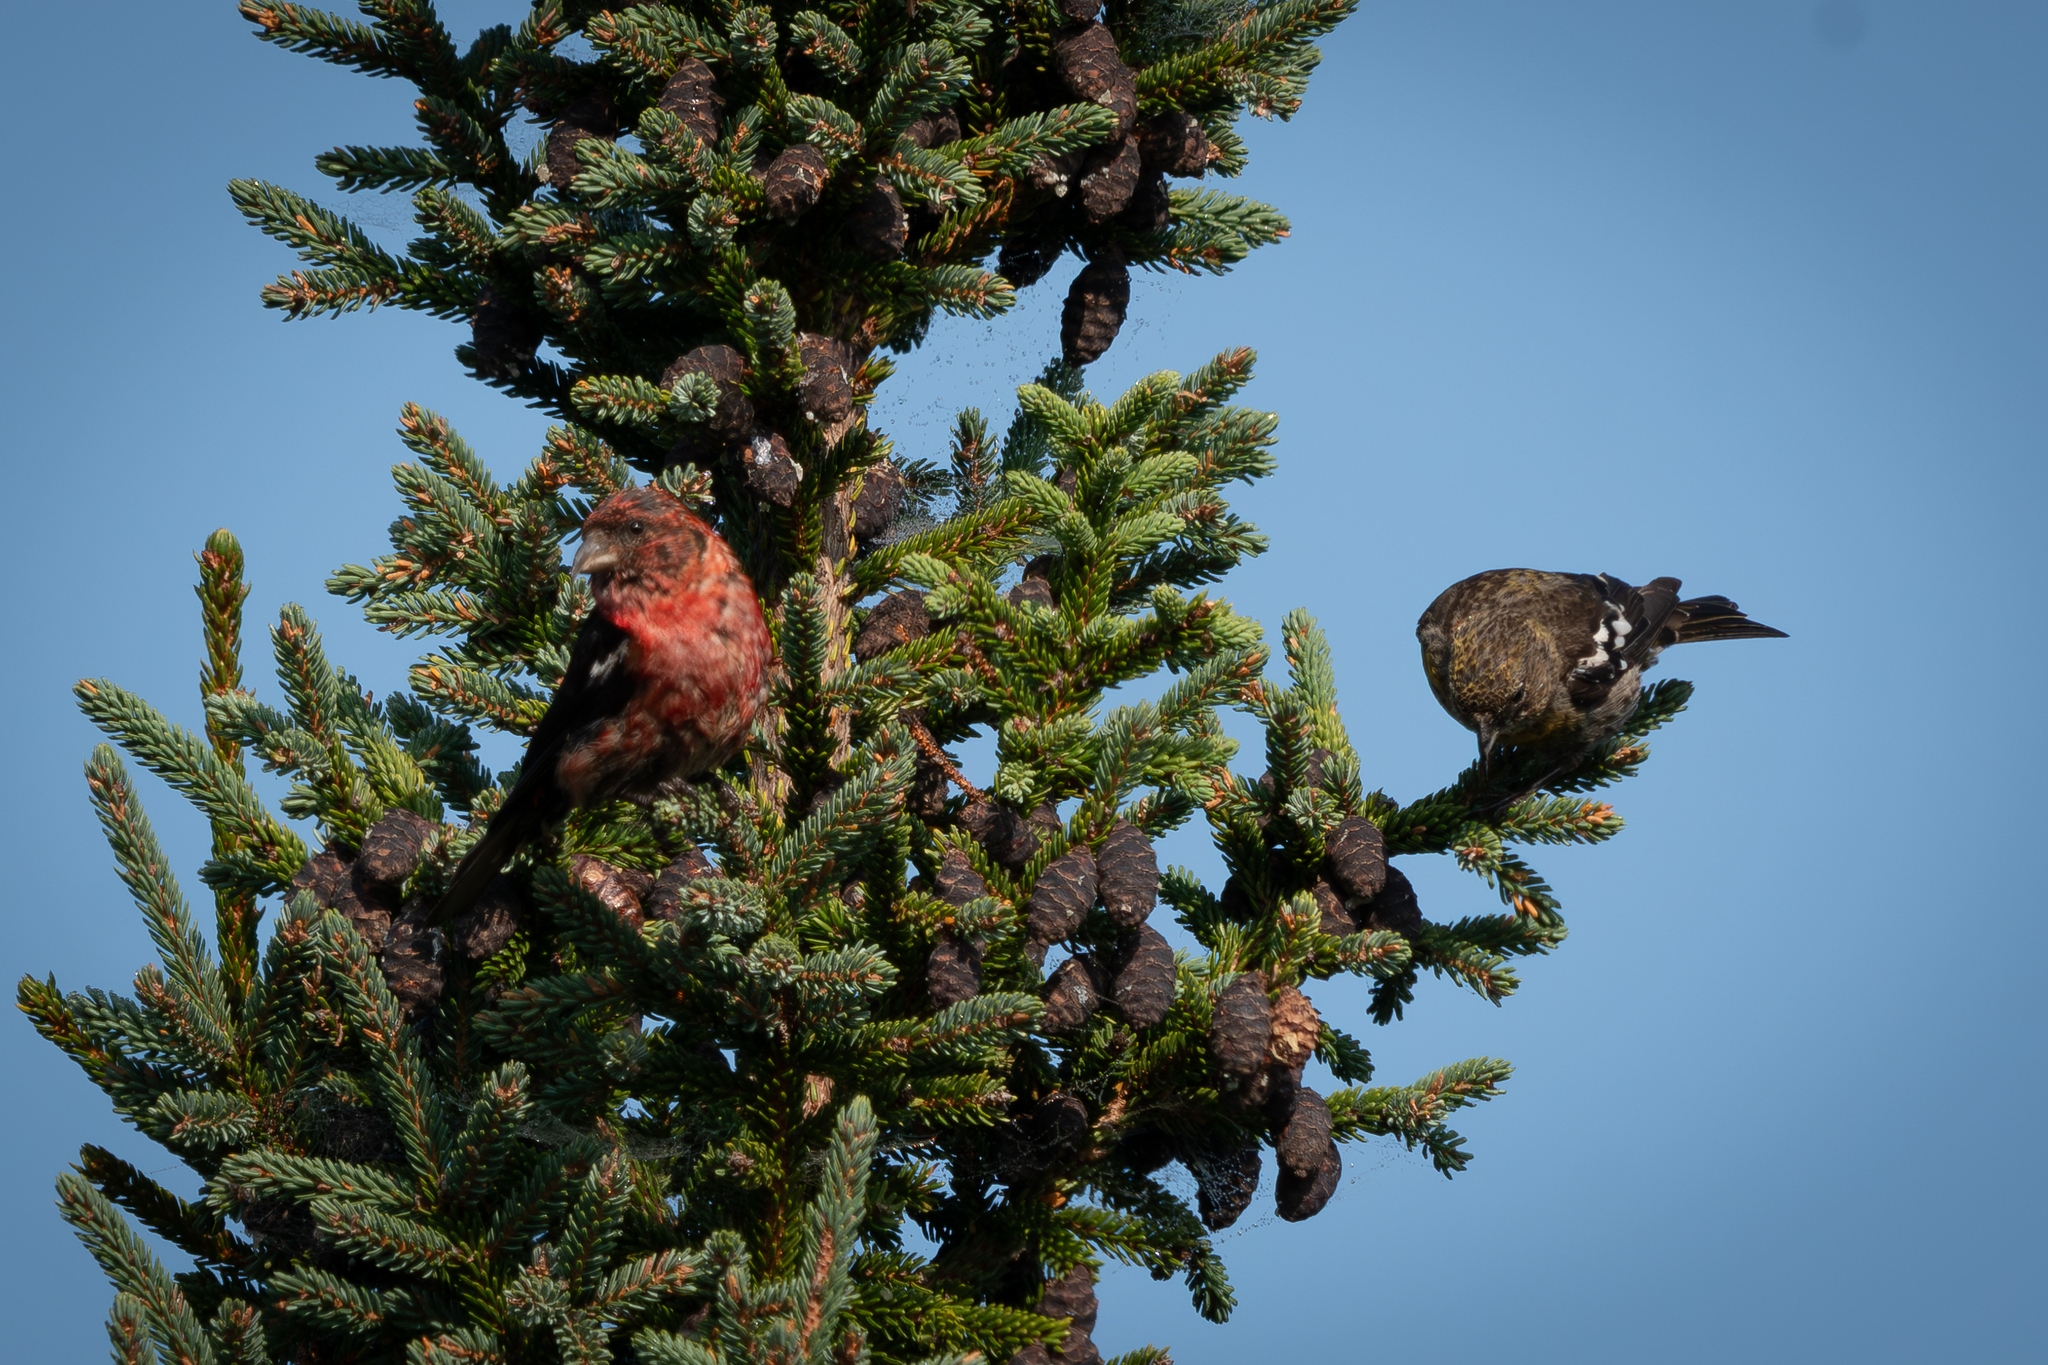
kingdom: Animalia
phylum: Chordata
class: Aves
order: Passeriformes
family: Fringillidae
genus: Loxia
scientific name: Loxia leucoptera
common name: Two-barred crossbill
